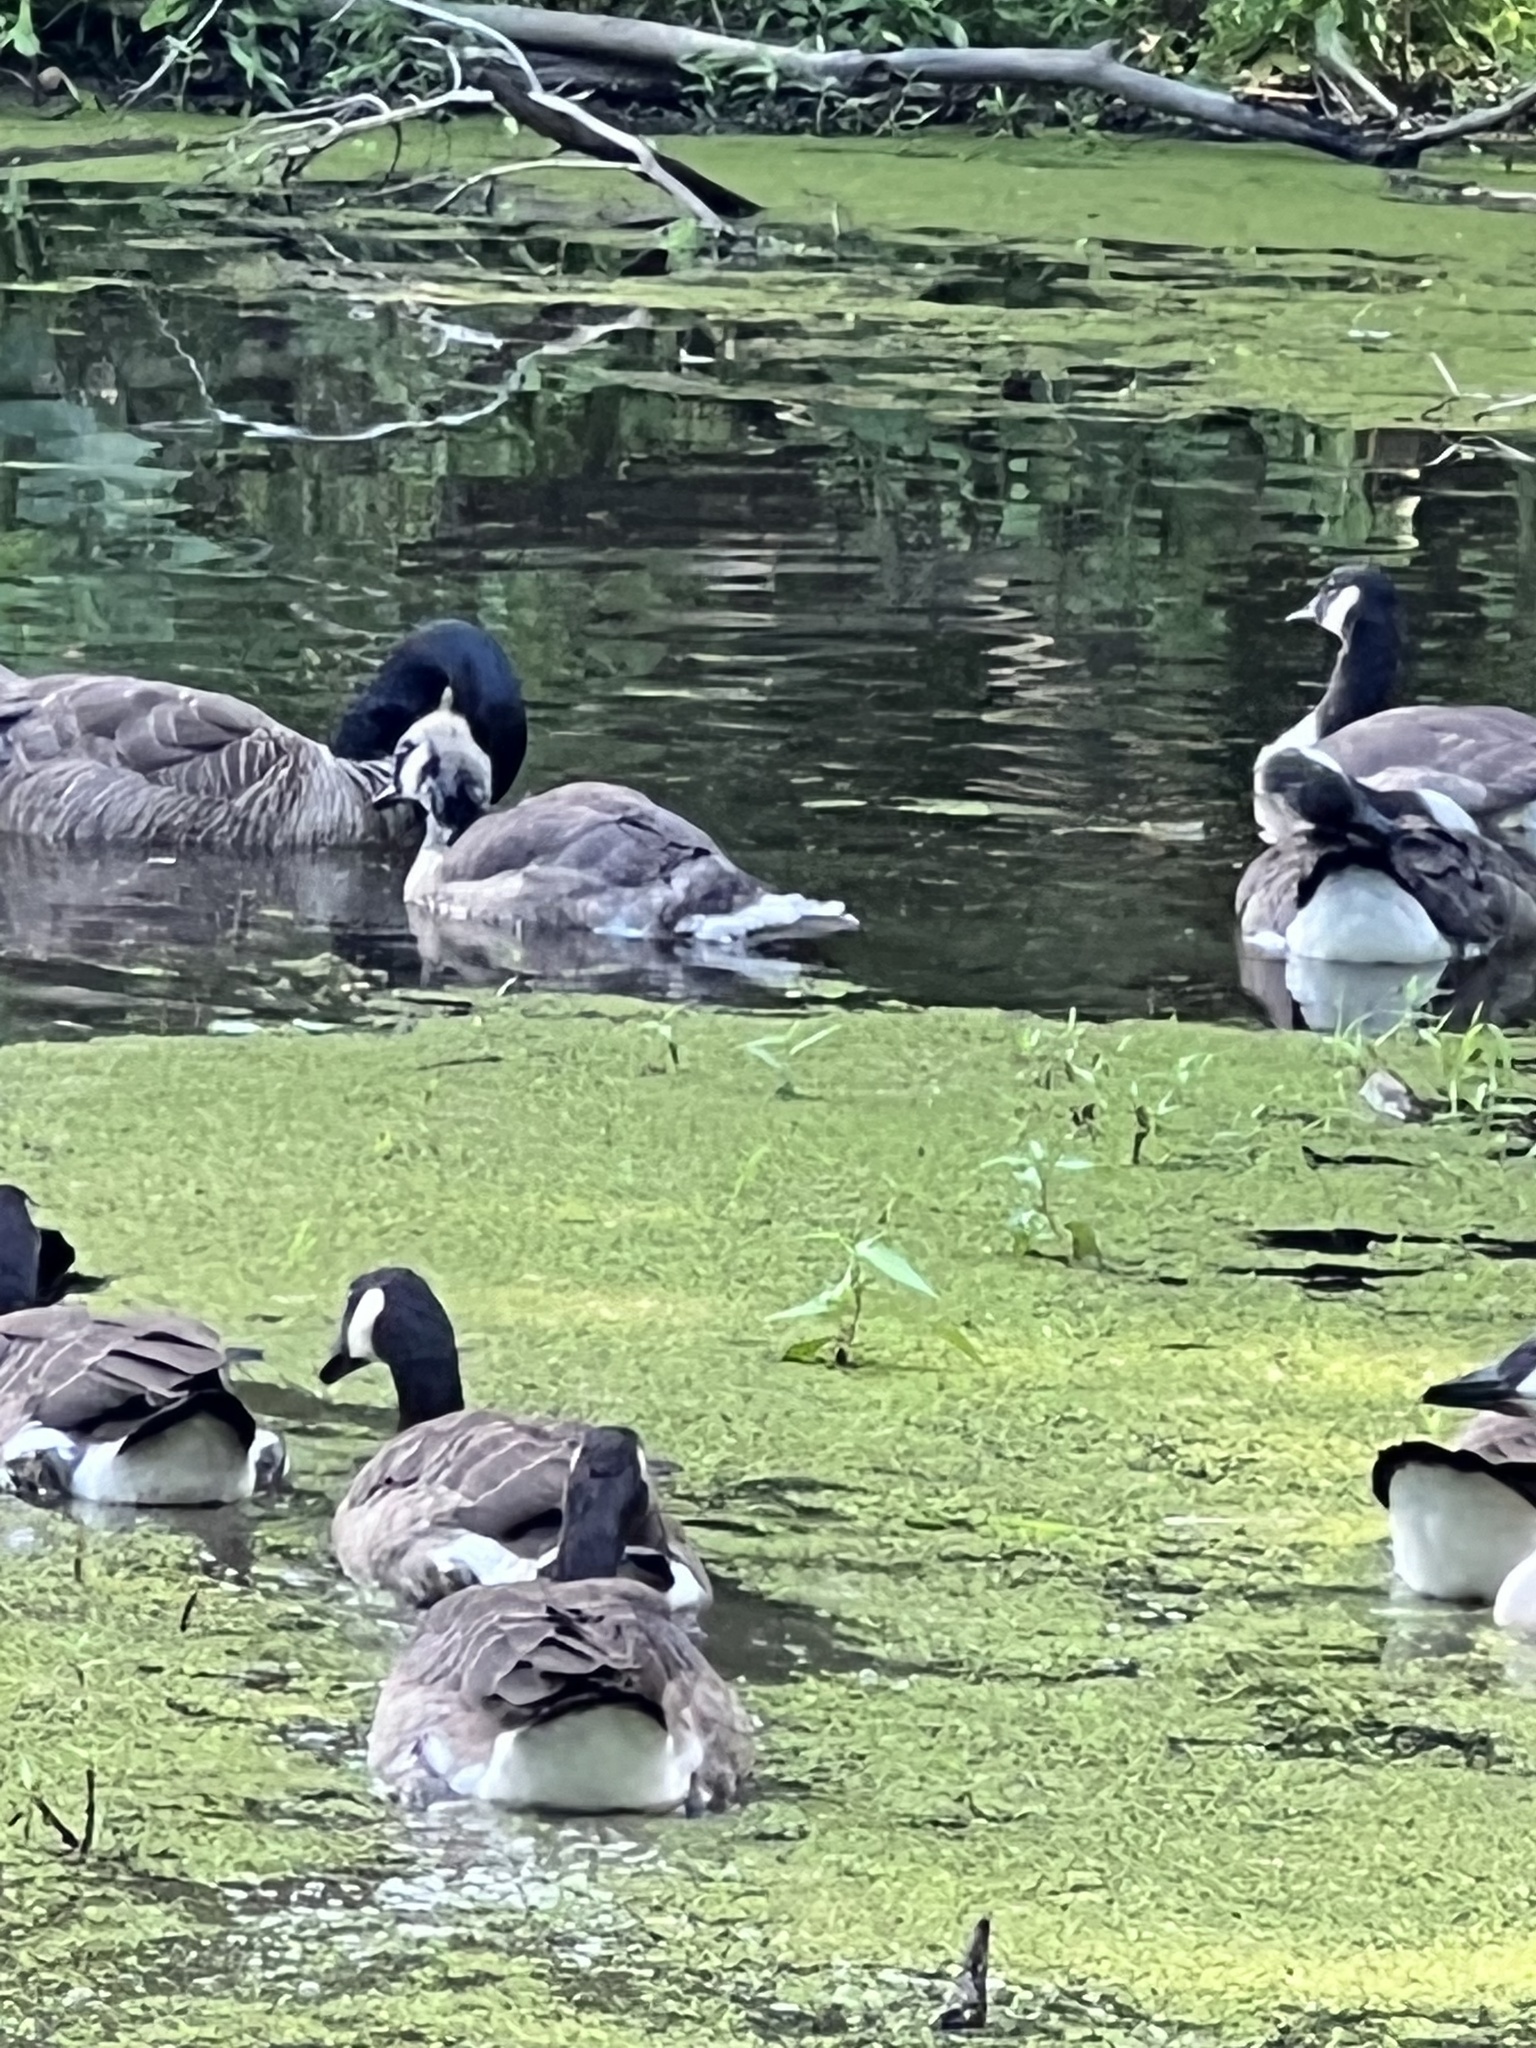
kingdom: Animalia
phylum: Chordata
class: Aves
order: Anseriformes
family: Anatidae
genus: Branta
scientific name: Branta canadensis
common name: Canada goose
